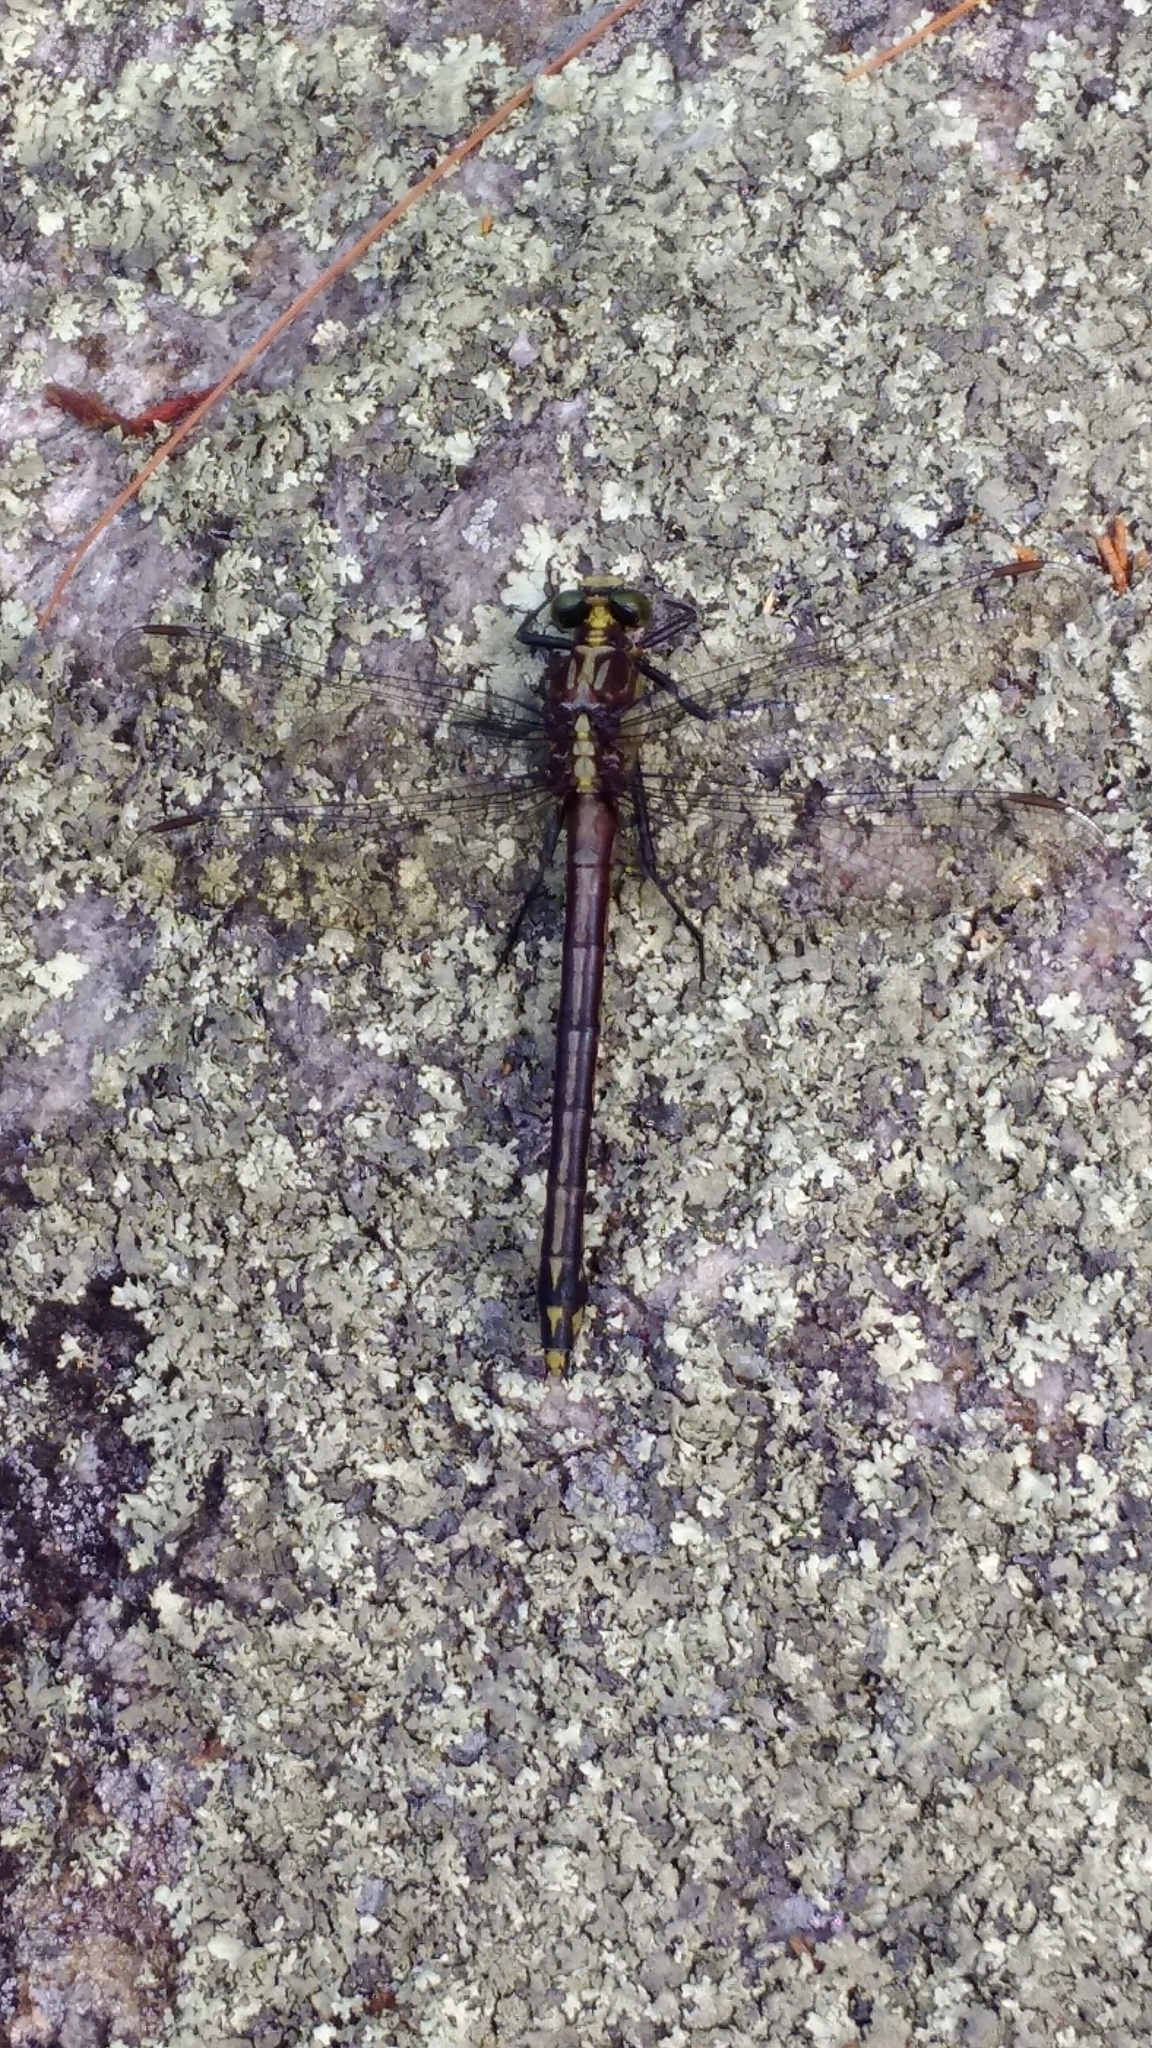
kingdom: Animalia
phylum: Arthropoda
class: Insecta
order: Odonata
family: Gomphidae
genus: Dromogomphus
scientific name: Dromogomphus spinosus
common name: Black-shouldered spinyleg
